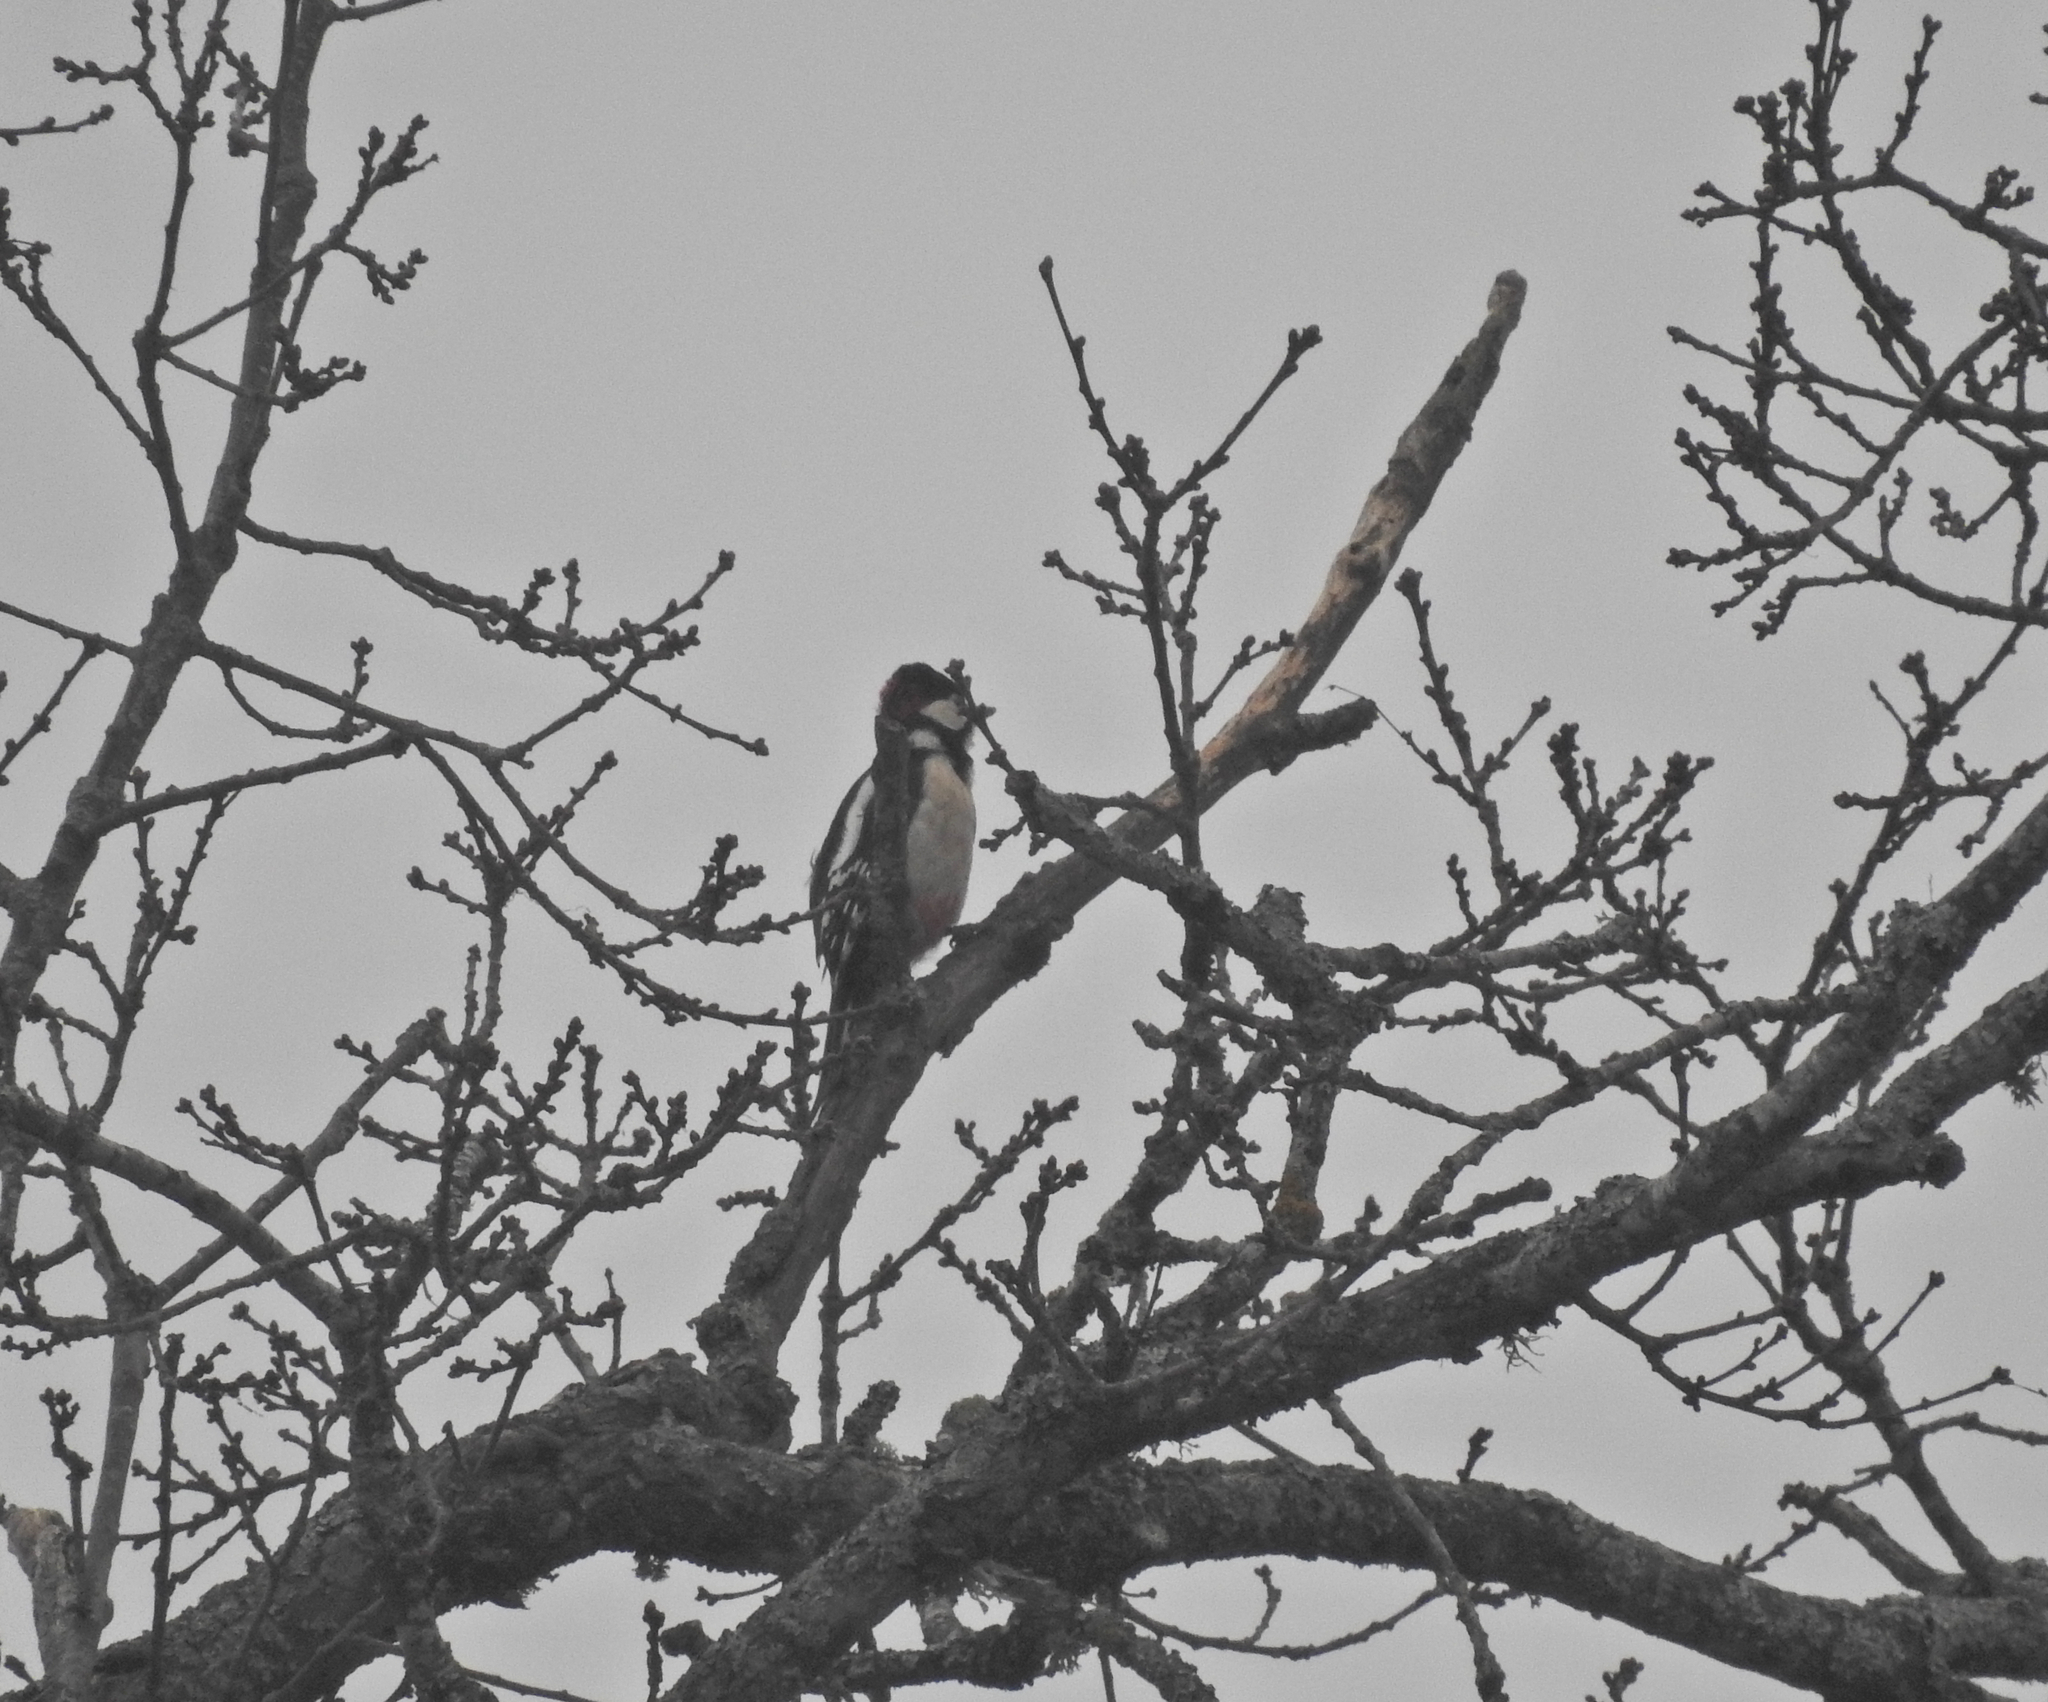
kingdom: Animalia
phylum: Chordata
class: Aves
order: Piciformes
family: Picidae
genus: Dendrocopos
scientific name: Dendrocopos major
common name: Great spotted woodpecker
